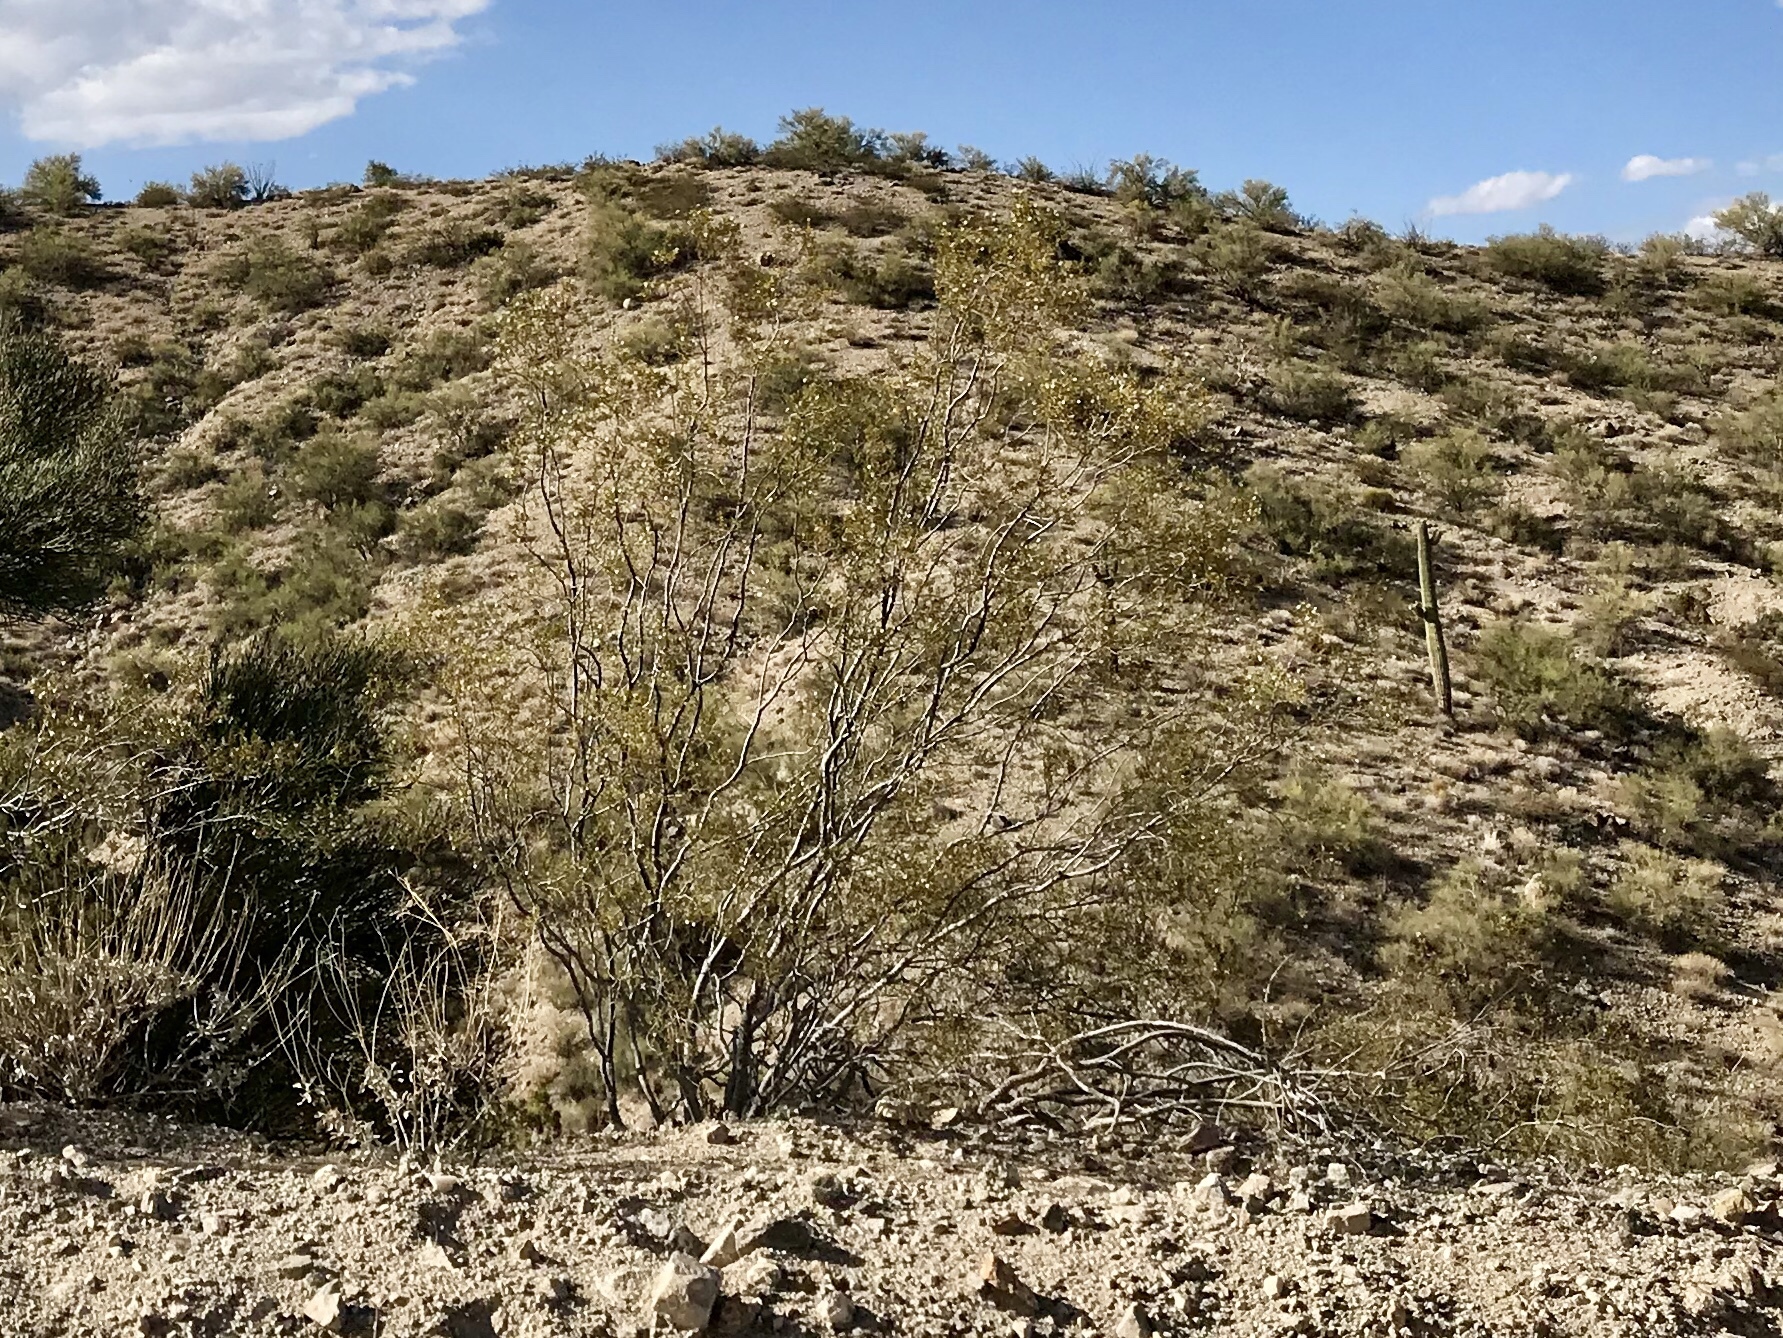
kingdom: Plantae
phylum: Tracheophyta
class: Magnoliopsida
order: Zygophyllales
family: Zygophyllaceae
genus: Larrea
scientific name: Larrea tridentata
